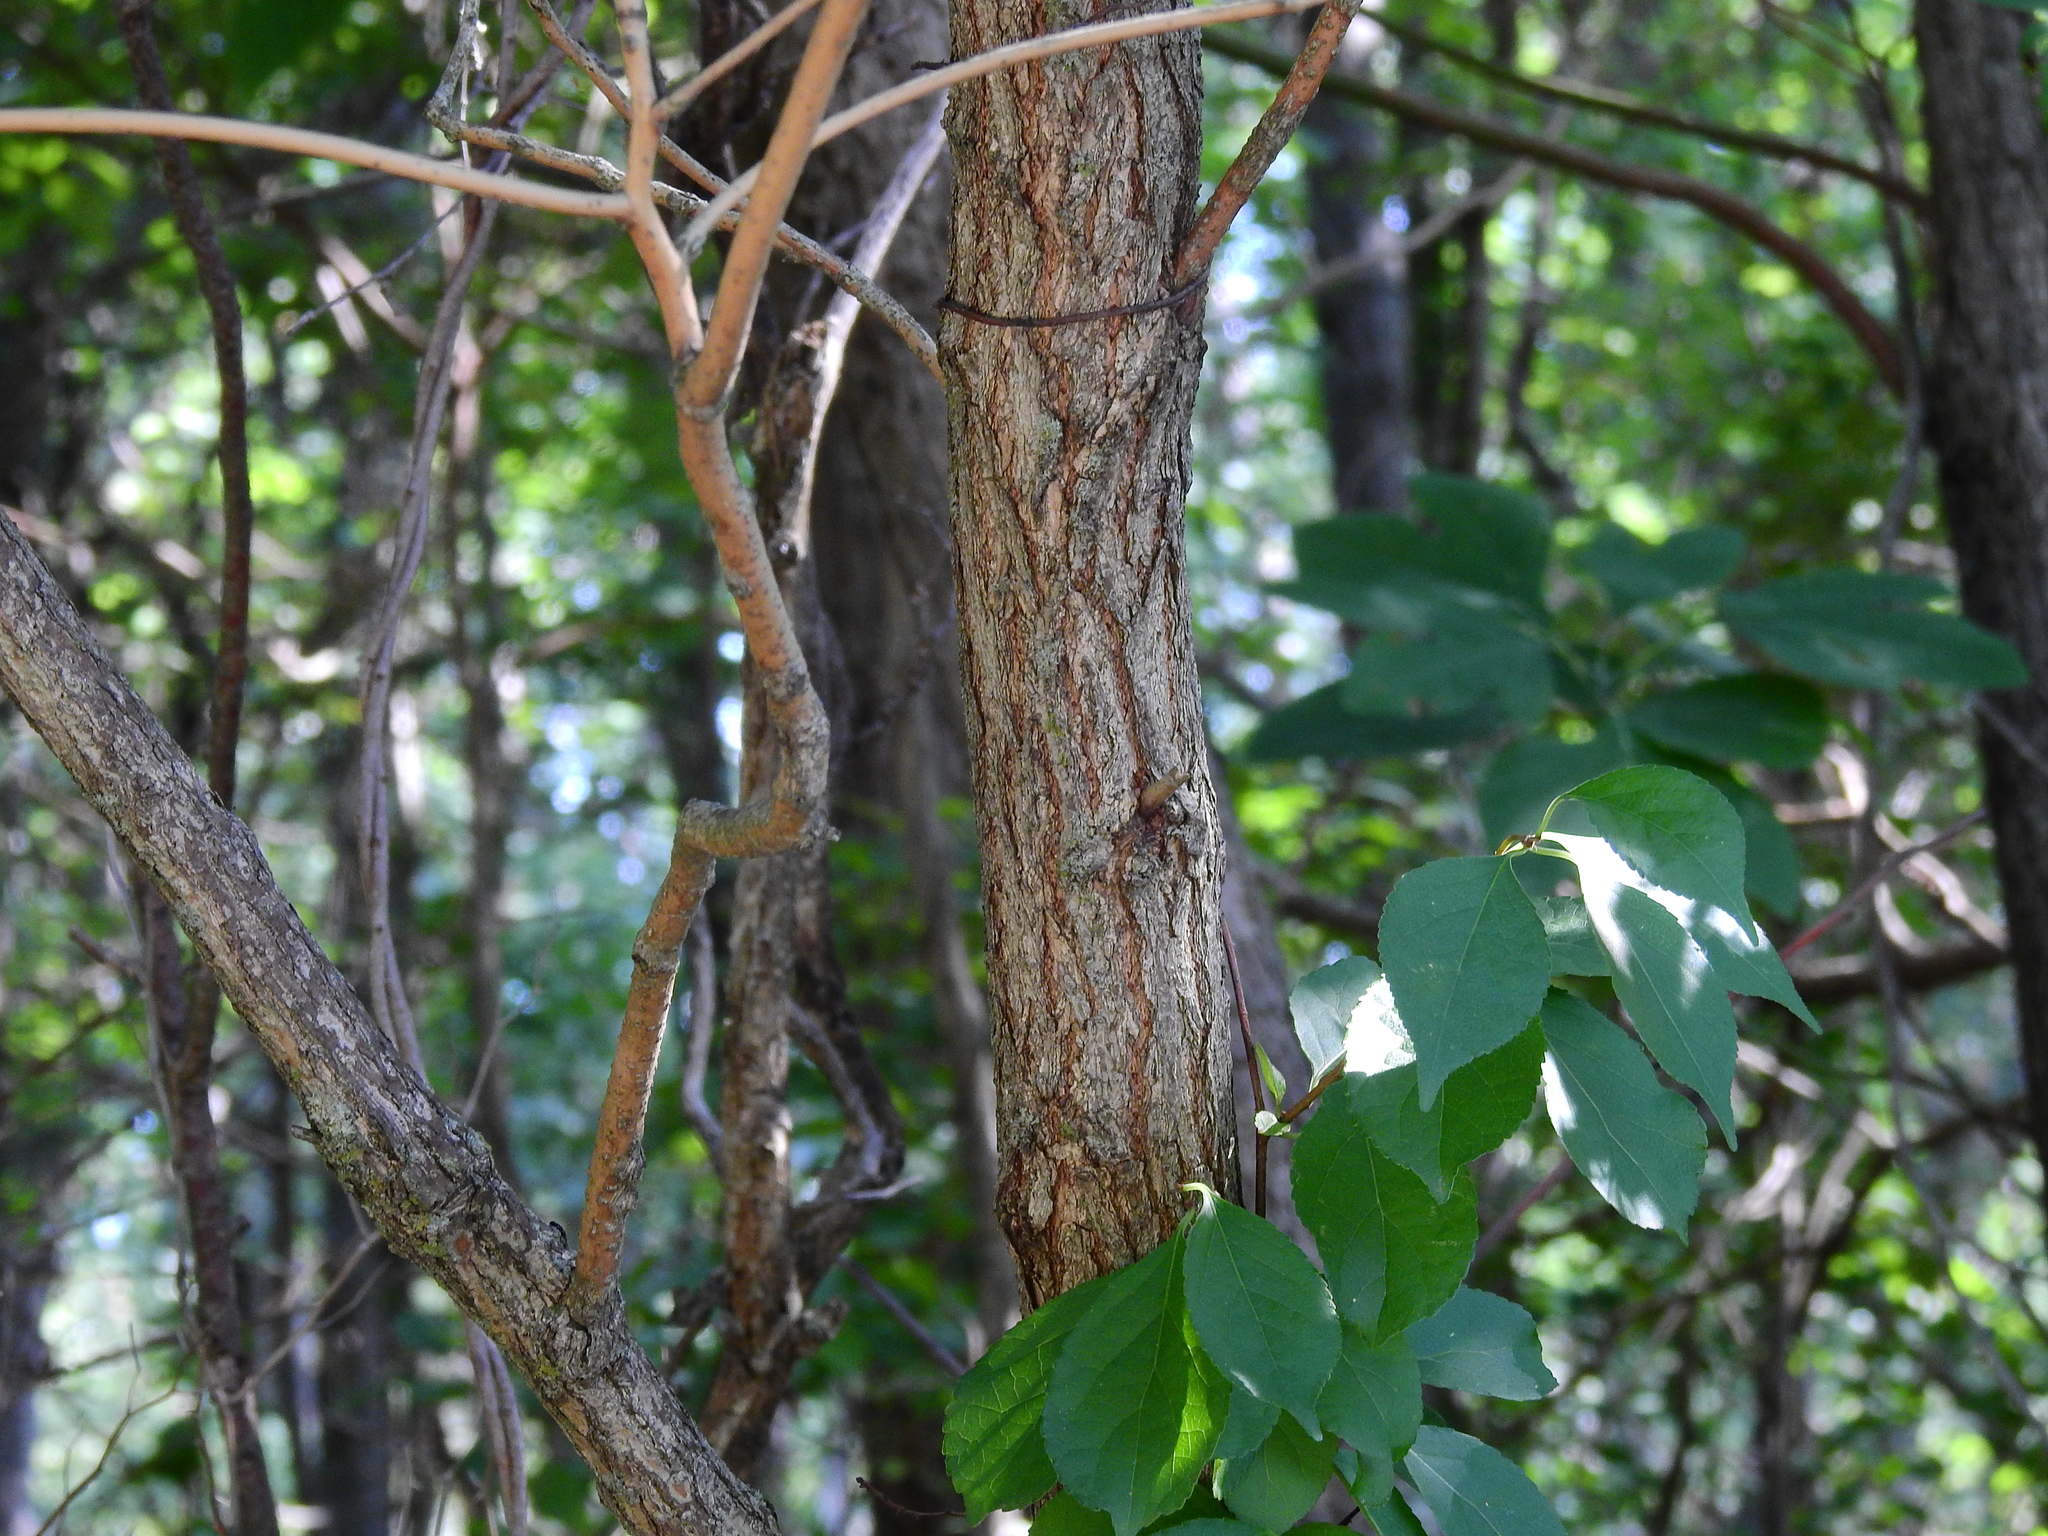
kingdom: Plantae
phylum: Tracheophyta
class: Magnoliopsida
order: Laurales
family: Lauraceae
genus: Sassafras
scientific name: Sassafras albidum
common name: Sassafras
